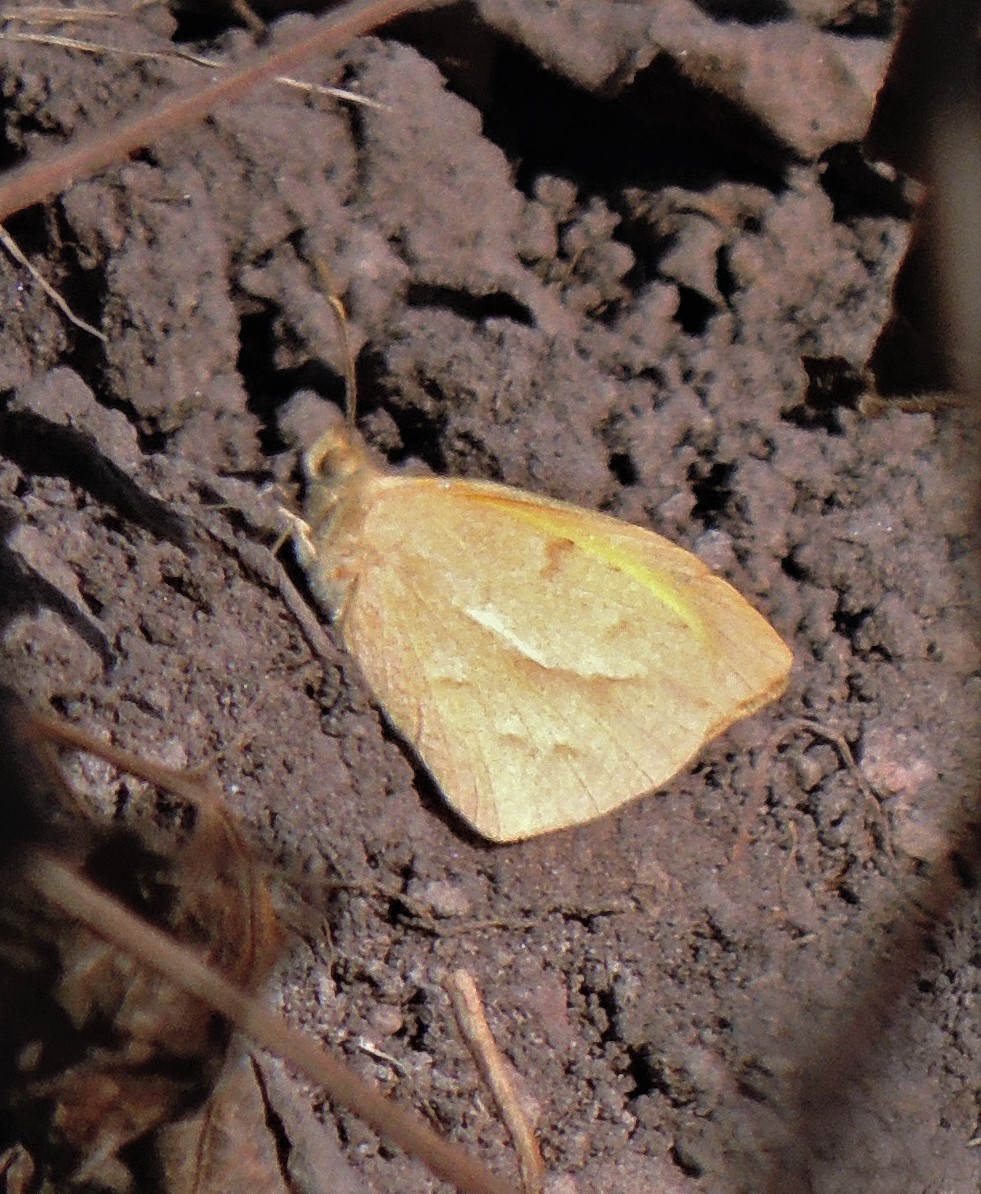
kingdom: Animalia
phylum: Arthropoda
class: Insecta
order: Lepidoptera
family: Pieridae
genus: Teriocolias
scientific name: Teriocolias zelia
